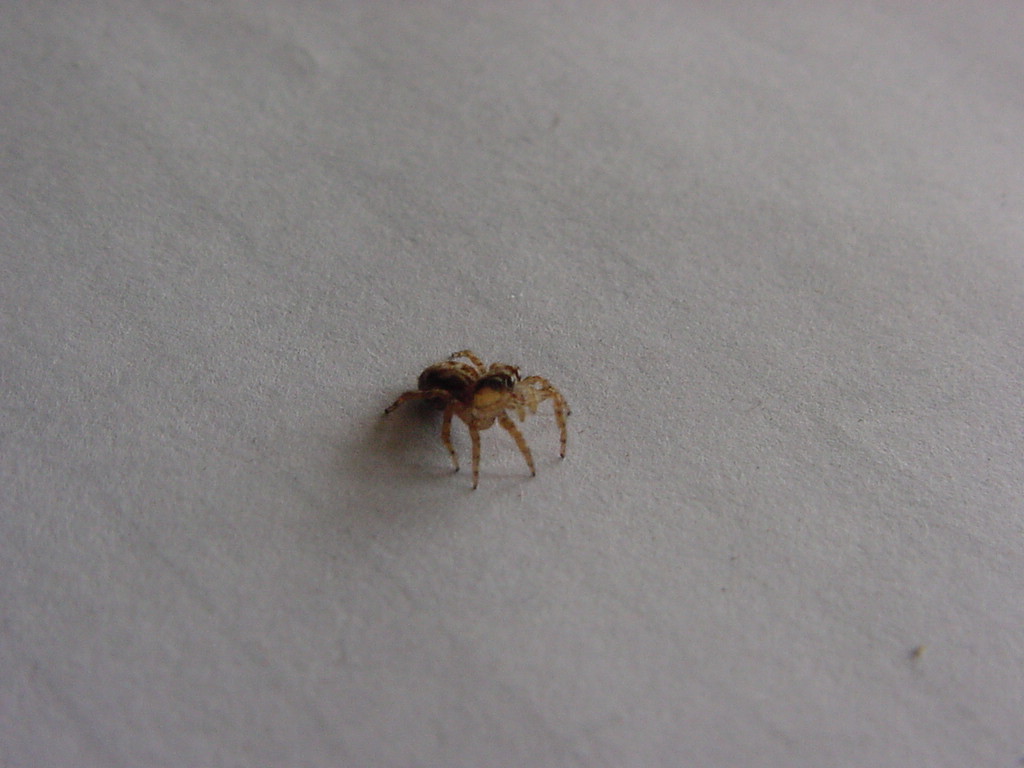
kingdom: Animalia
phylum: Arthropoda
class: Arachnida
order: Araneae
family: Salticidae
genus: Plexippus
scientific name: Plexippus petersi
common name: Jumping spider
